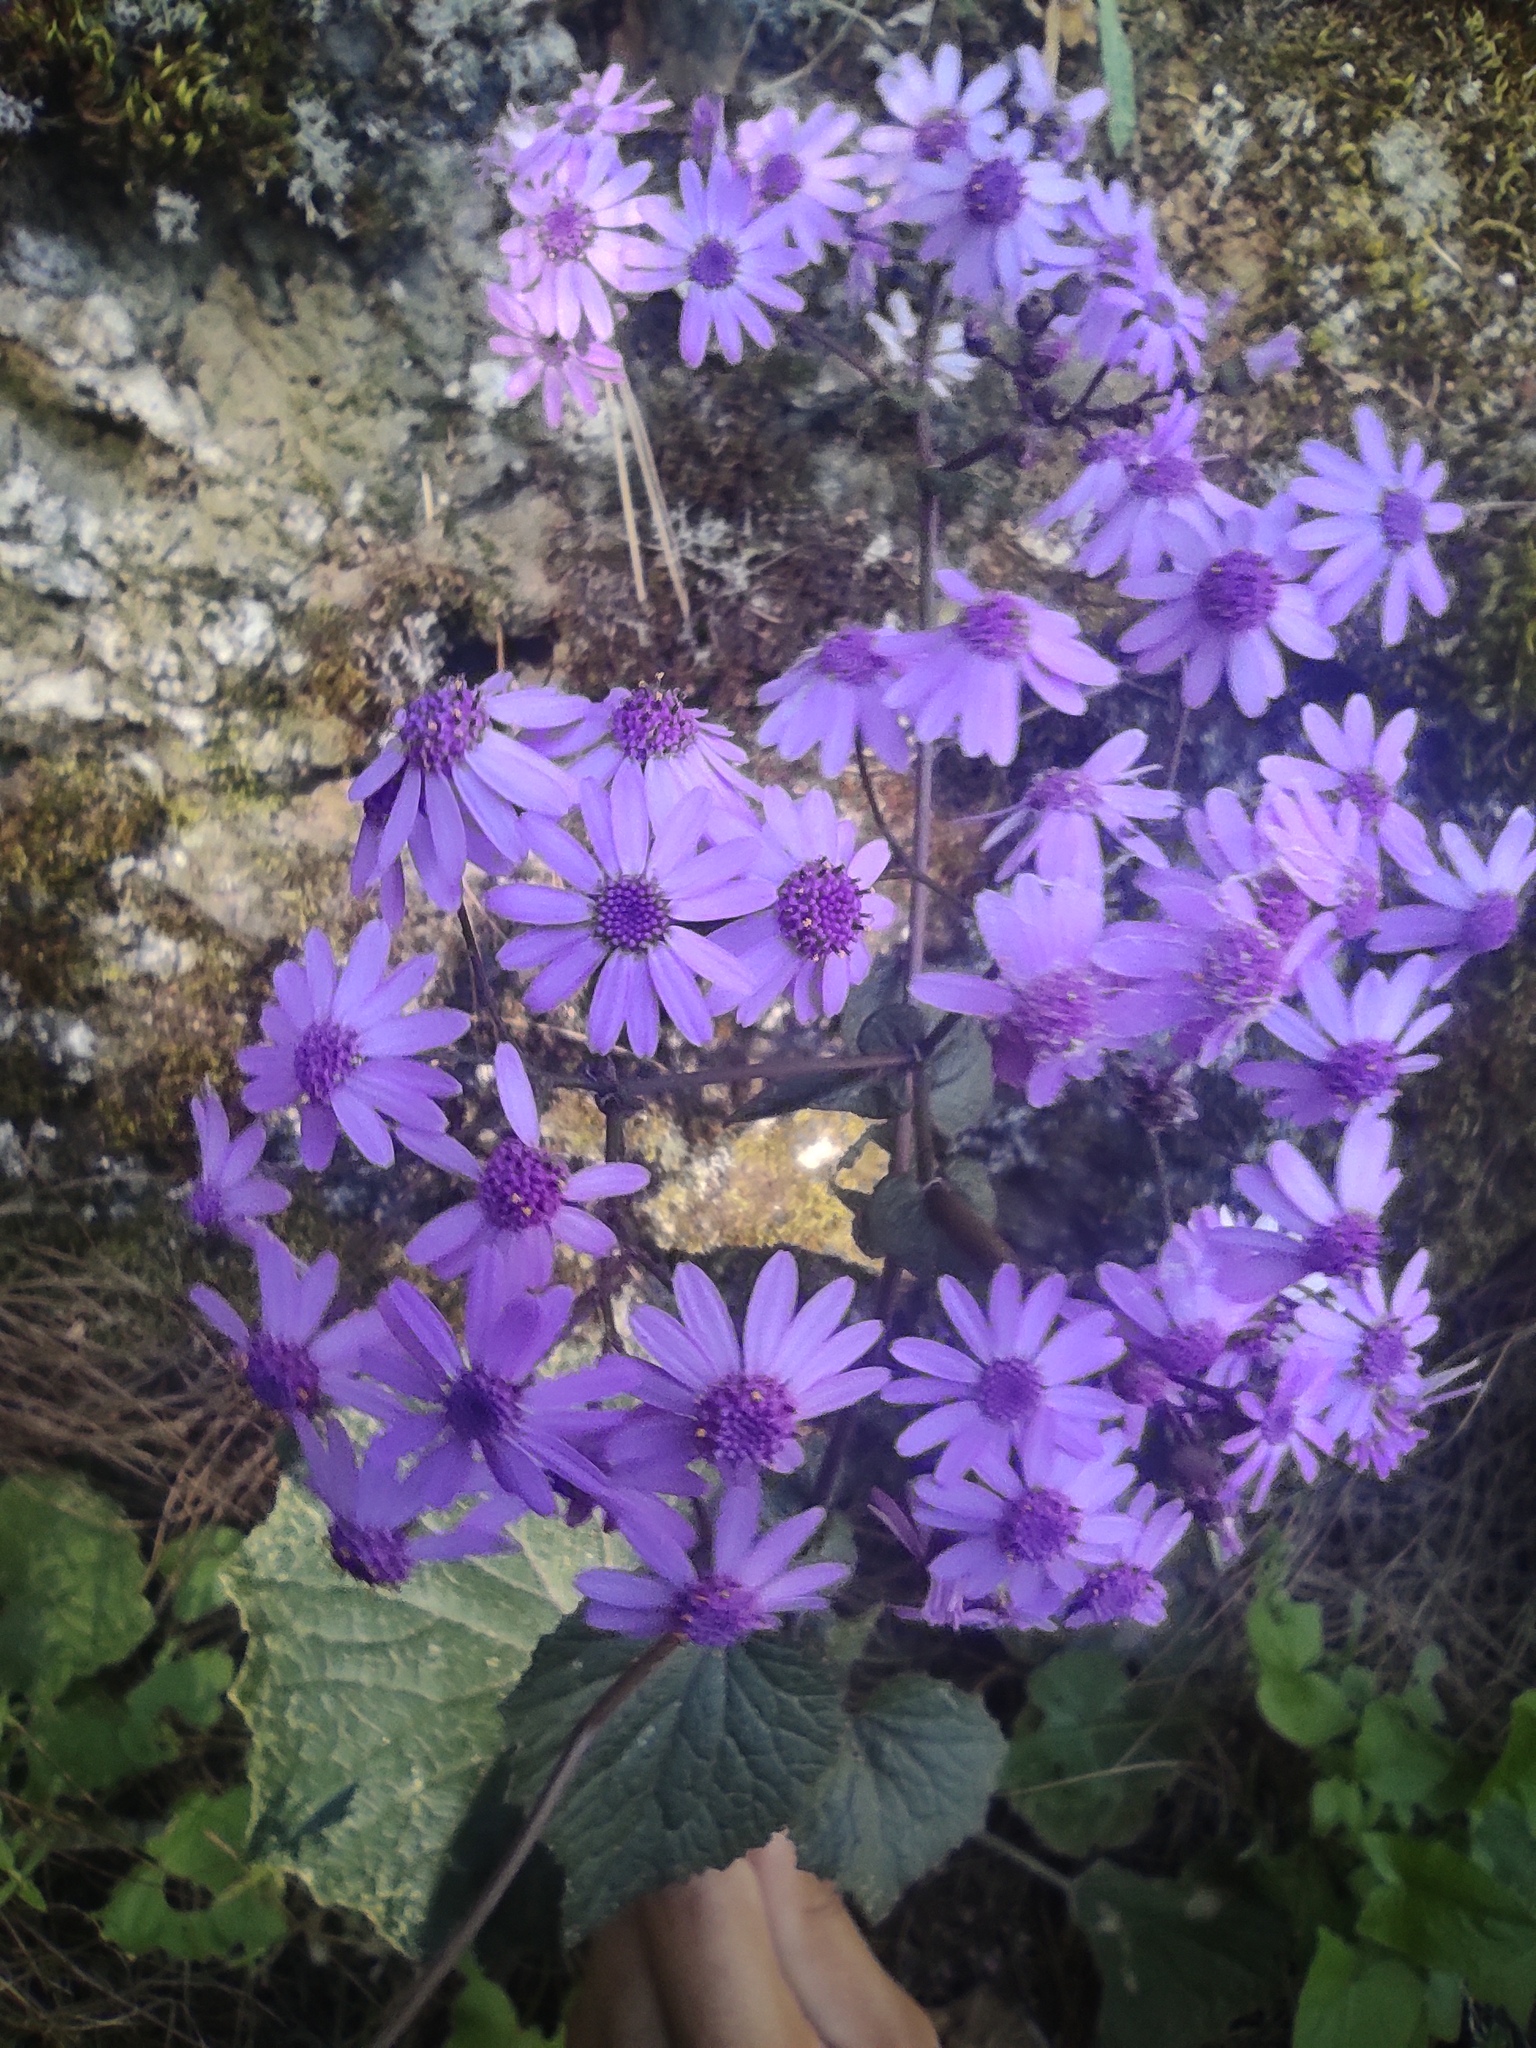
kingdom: Plantae
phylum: Tracheophyta
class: Magnoliopsida
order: Asterales
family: Asteraceae
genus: Pericallis
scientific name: Pericallis cruenta
